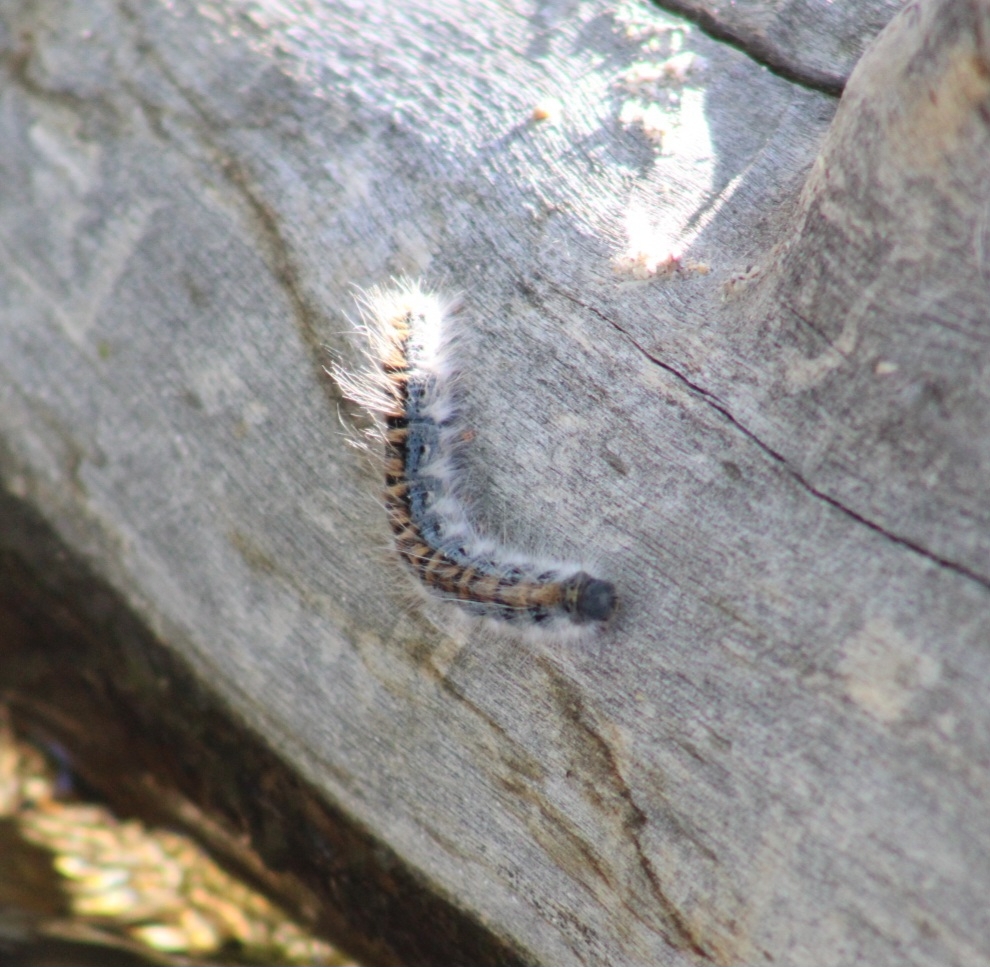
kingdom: Animalia
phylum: Arthropoda
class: Insecta
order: Lepidoptera
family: Lasiocampidae
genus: Malacosoma
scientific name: Malacosoma incurva
